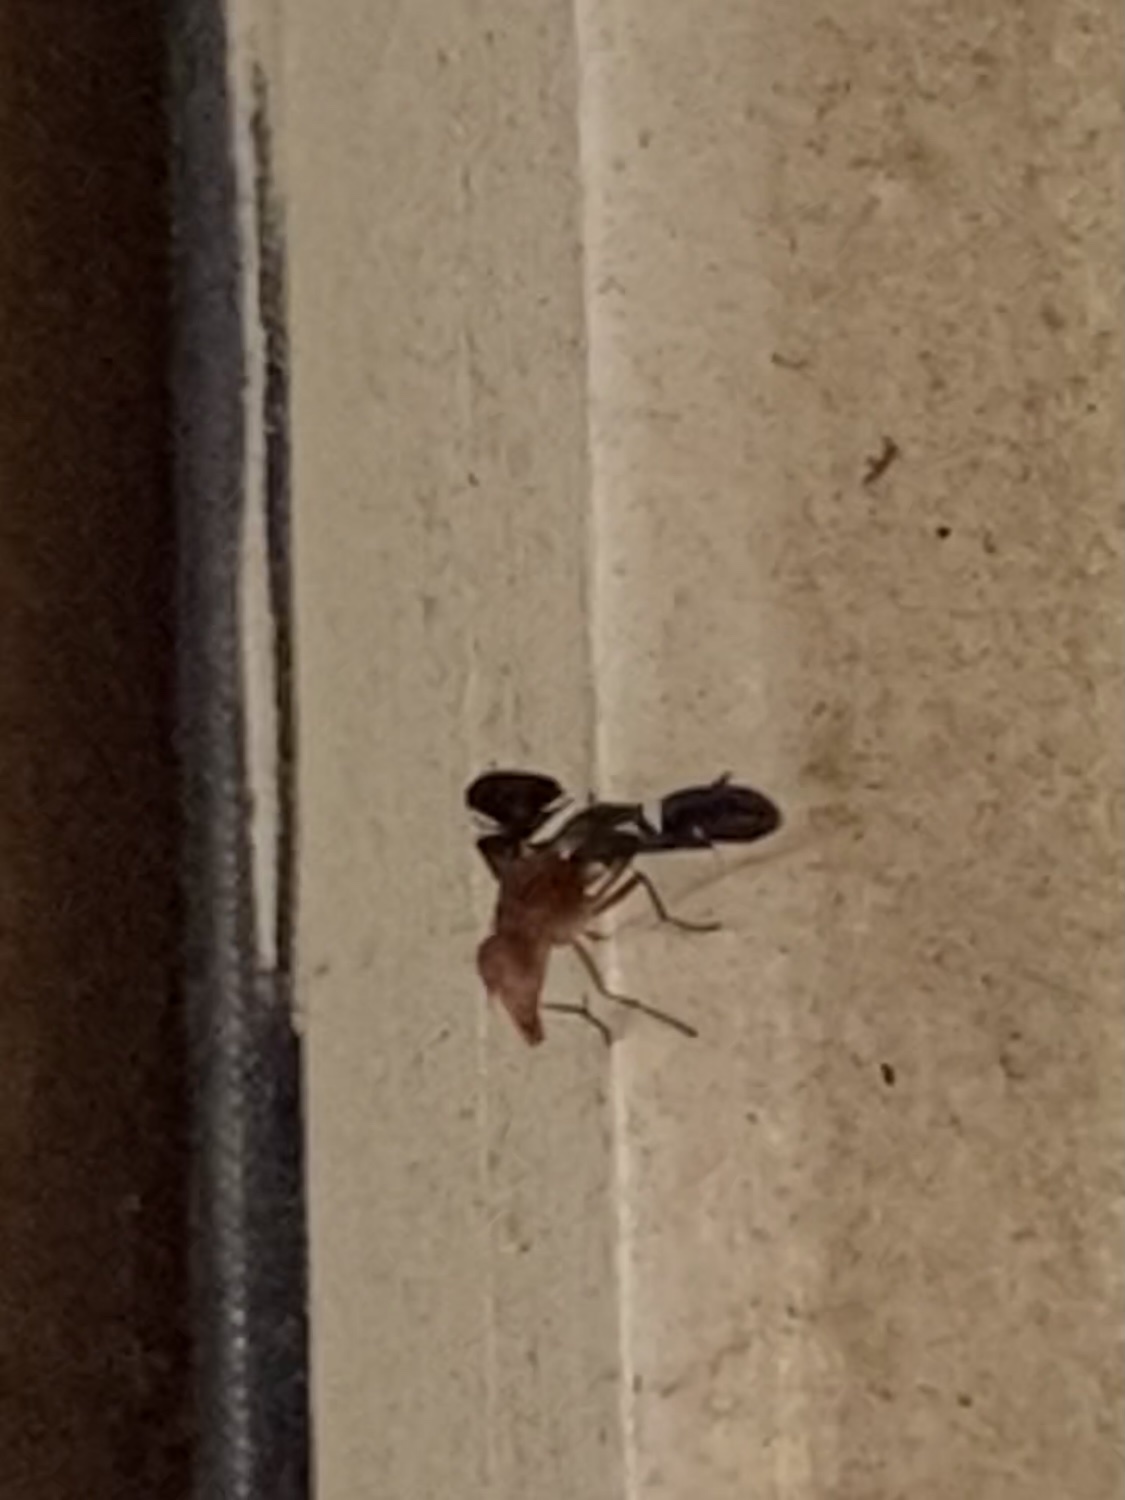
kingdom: Animalia
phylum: Arthropoda
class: Insecta
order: Diptera
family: Ulidiidae
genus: Delphinia
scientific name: Delphinia picta
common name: Common picture-winged fly
